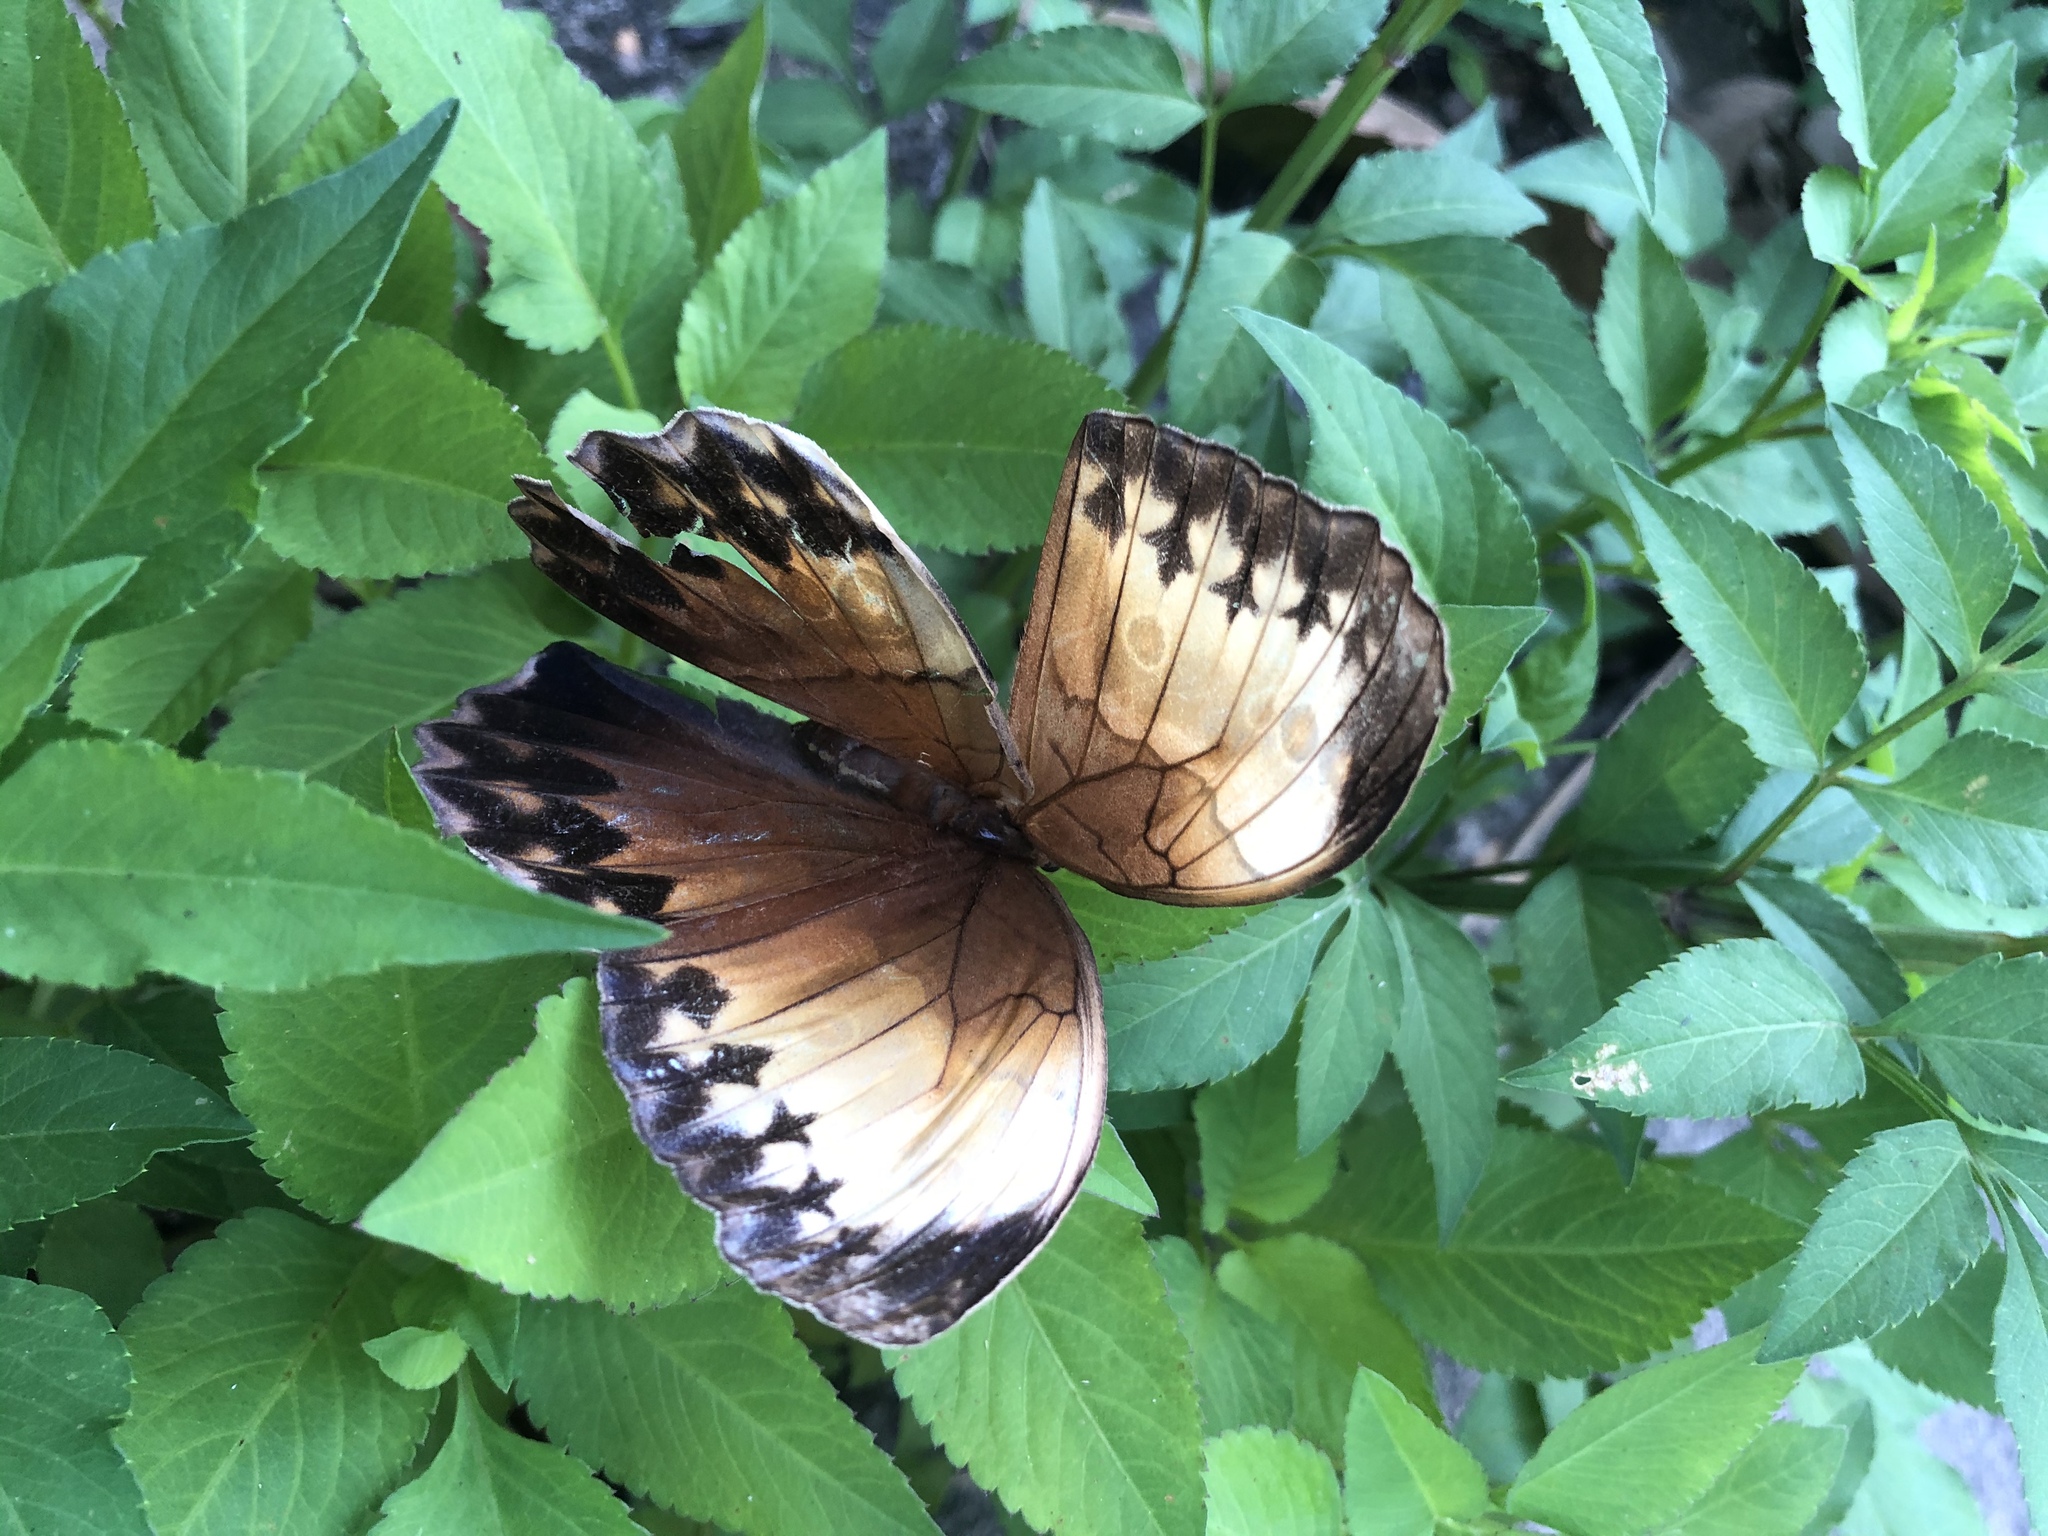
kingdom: Animalia
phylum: Arthropoda
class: Insecta
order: Lepidoptera
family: Nymphalidae
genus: Stichophthalma
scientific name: Stichophthalma
